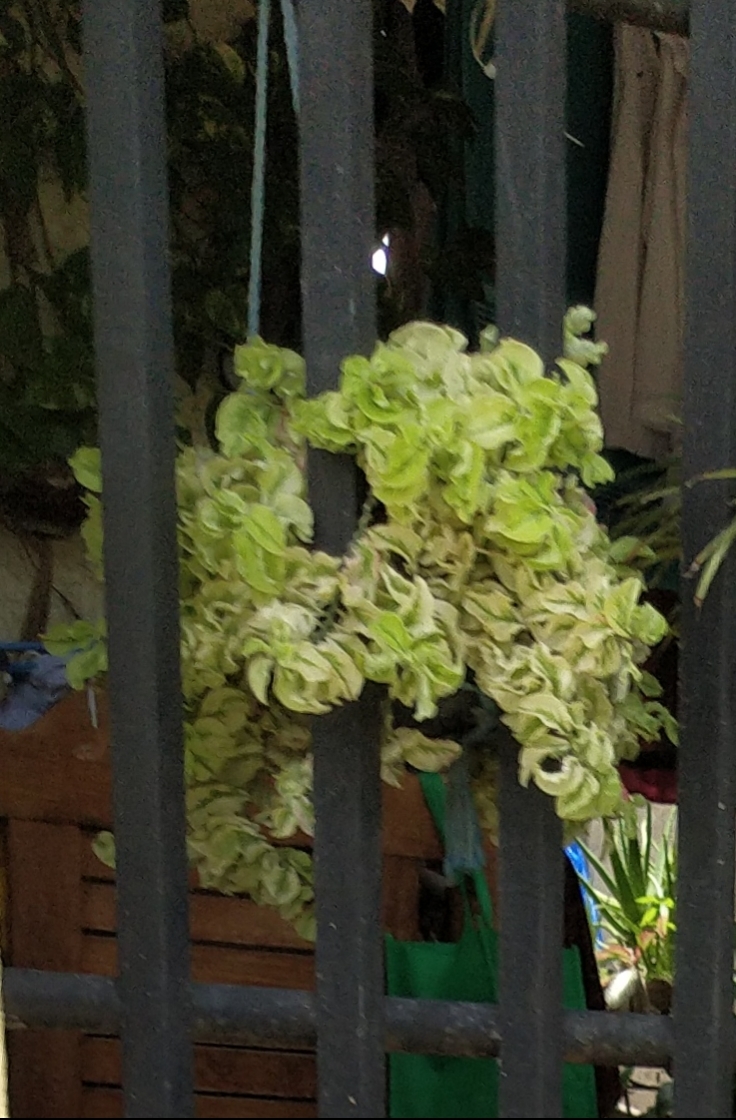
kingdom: Plantae
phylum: Tracheophyta
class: Magnoliopsida
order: Malpighiales
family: Euphorbiaceae
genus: Euphorbia
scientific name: Euphorbia tithymaloides
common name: Slipperplant
